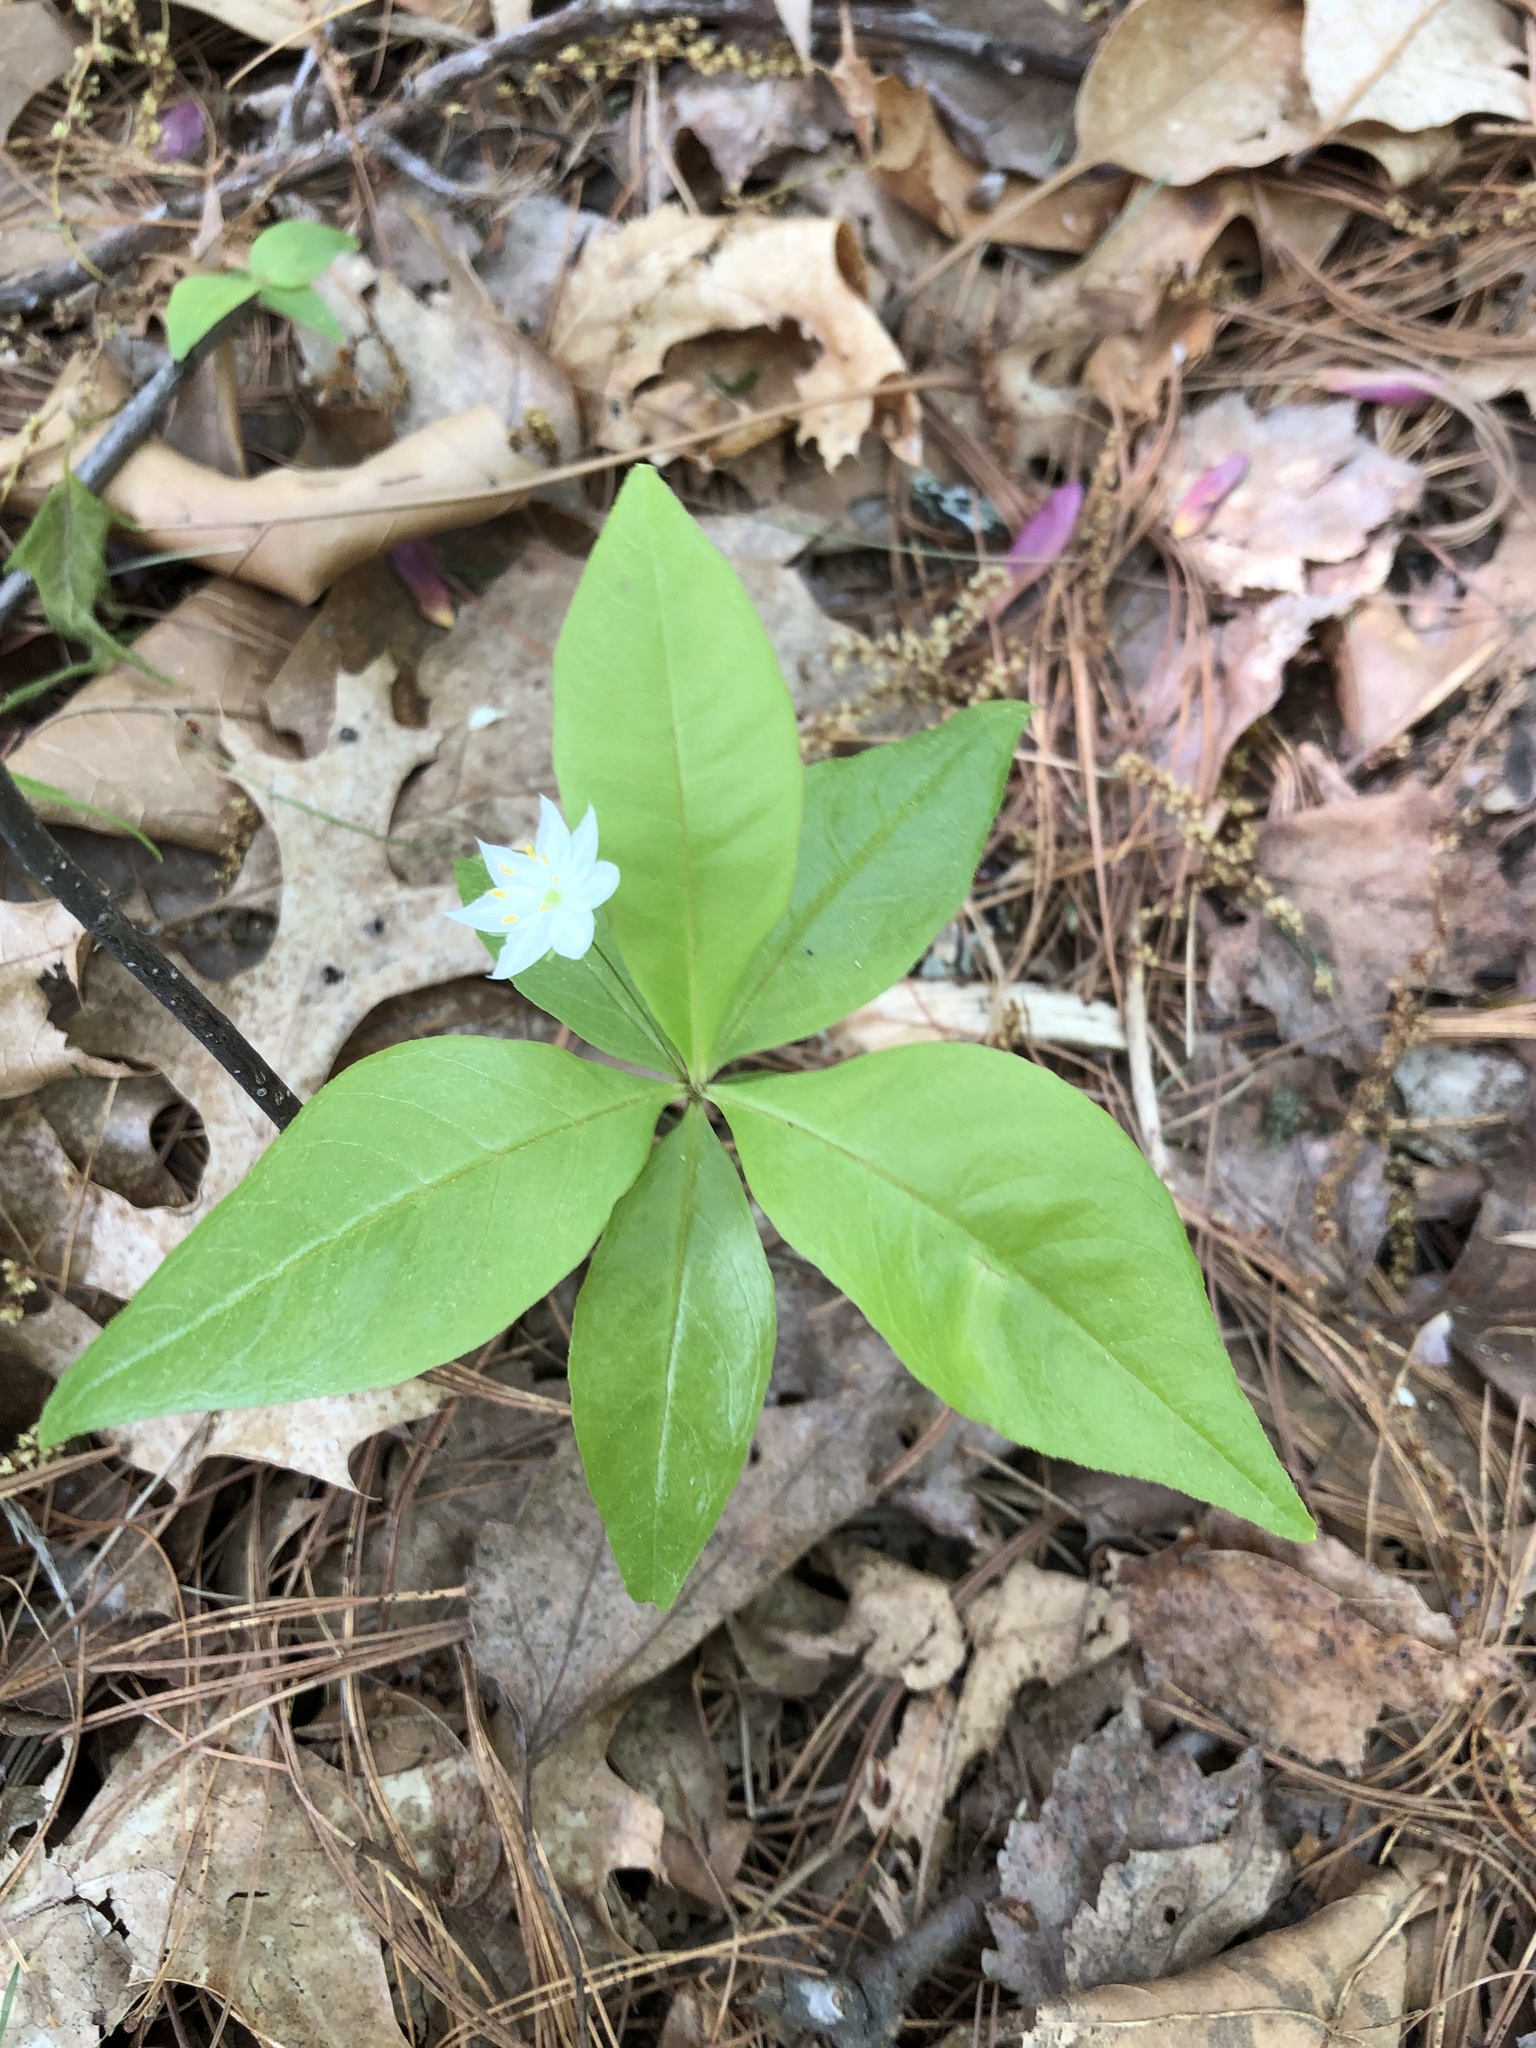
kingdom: Plantae
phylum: Tracheophyta
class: Magnoliopsida
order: Ericales
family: Primulaceae
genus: Lysimachia
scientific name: Lysimachia borealis
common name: American starflower
